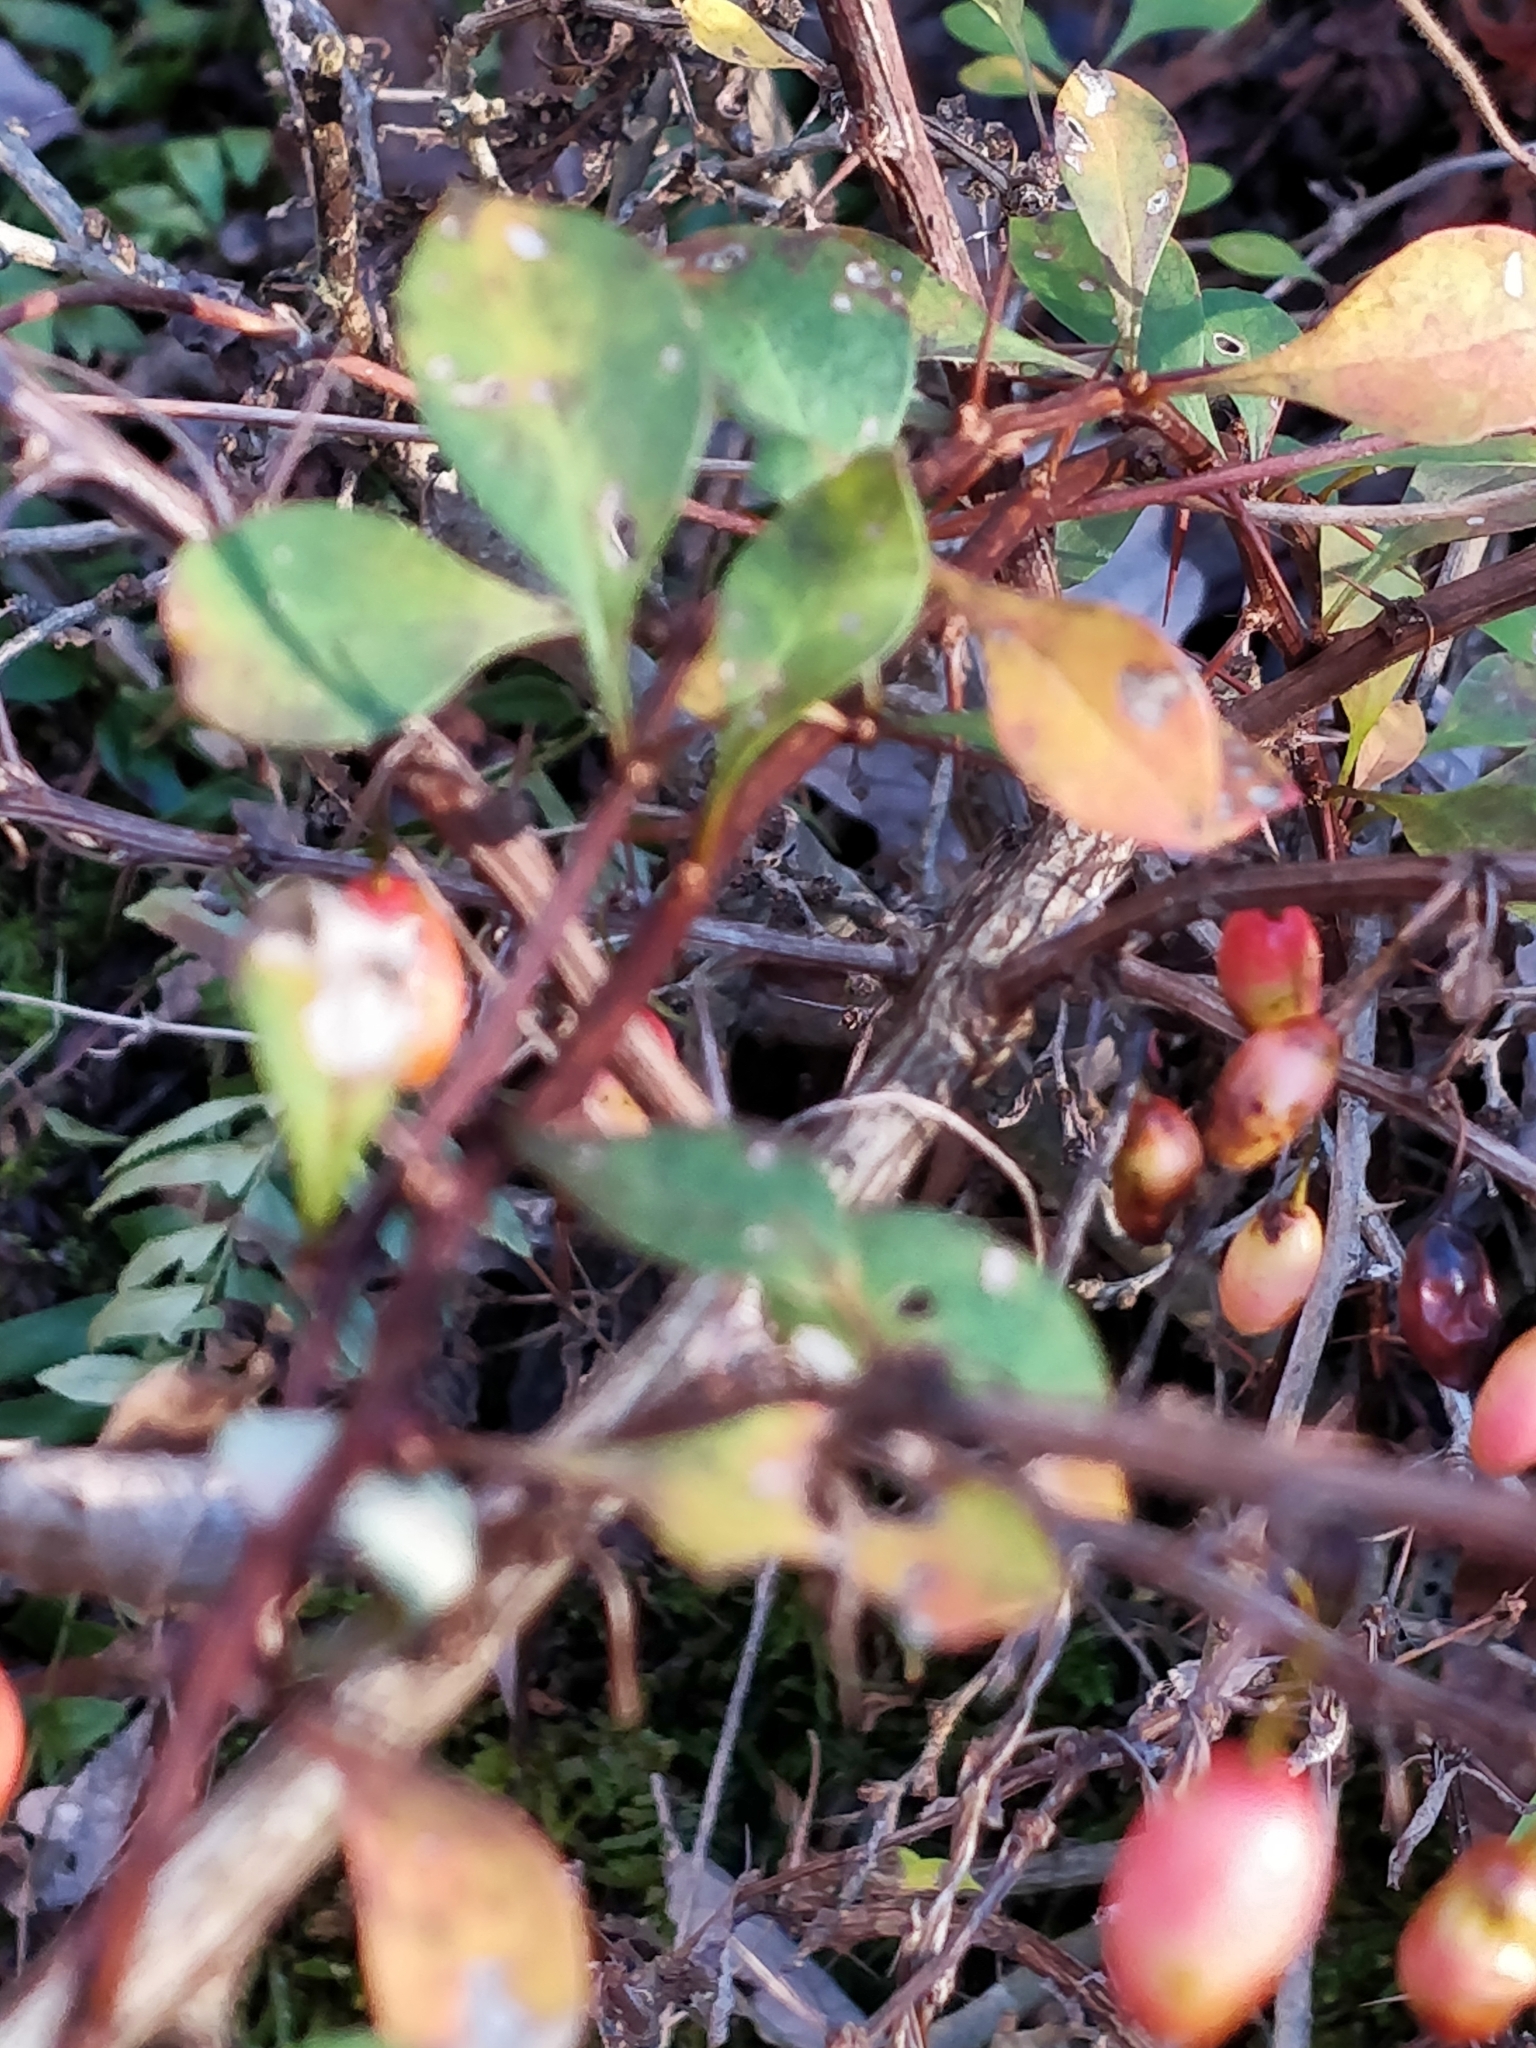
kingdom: Plantae
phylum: Tracheophyta
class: Magnoliopsida
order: Ranunculales
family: Berberidaceae
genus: Berberis
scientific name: Berberis thunbergii
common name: Japanese barberry
